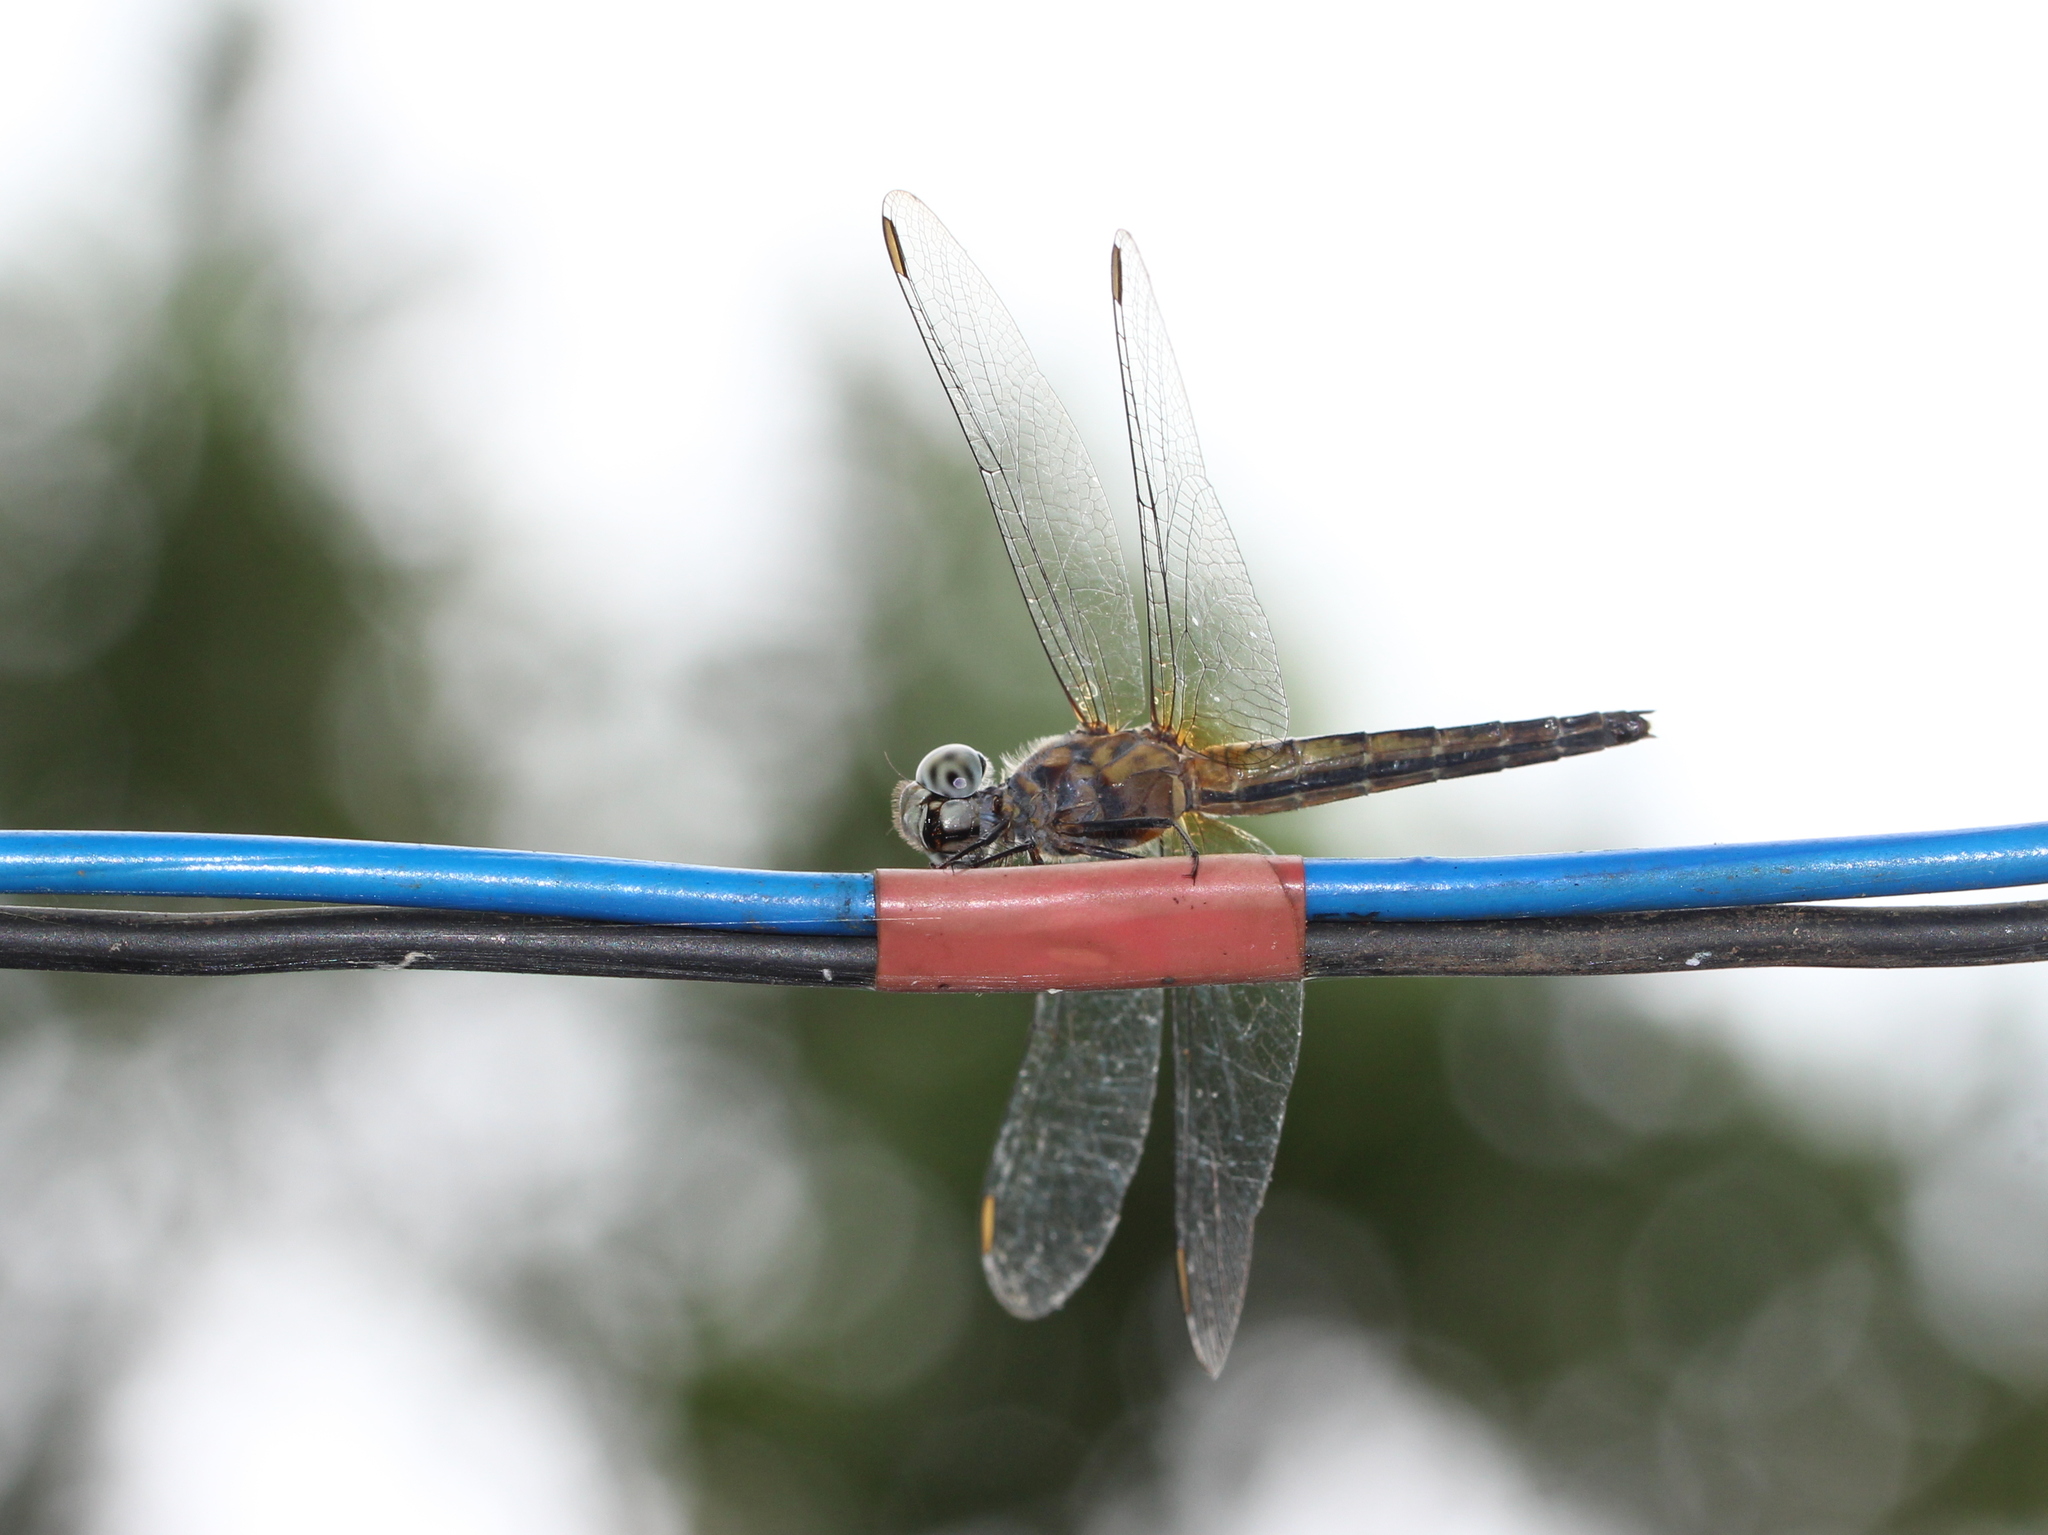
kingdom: Animalia
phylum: Arthropoda
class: Insecta
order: Odonata
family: Libellulidae
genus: Brachydiplax
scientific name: Brachydiplax chalybea
